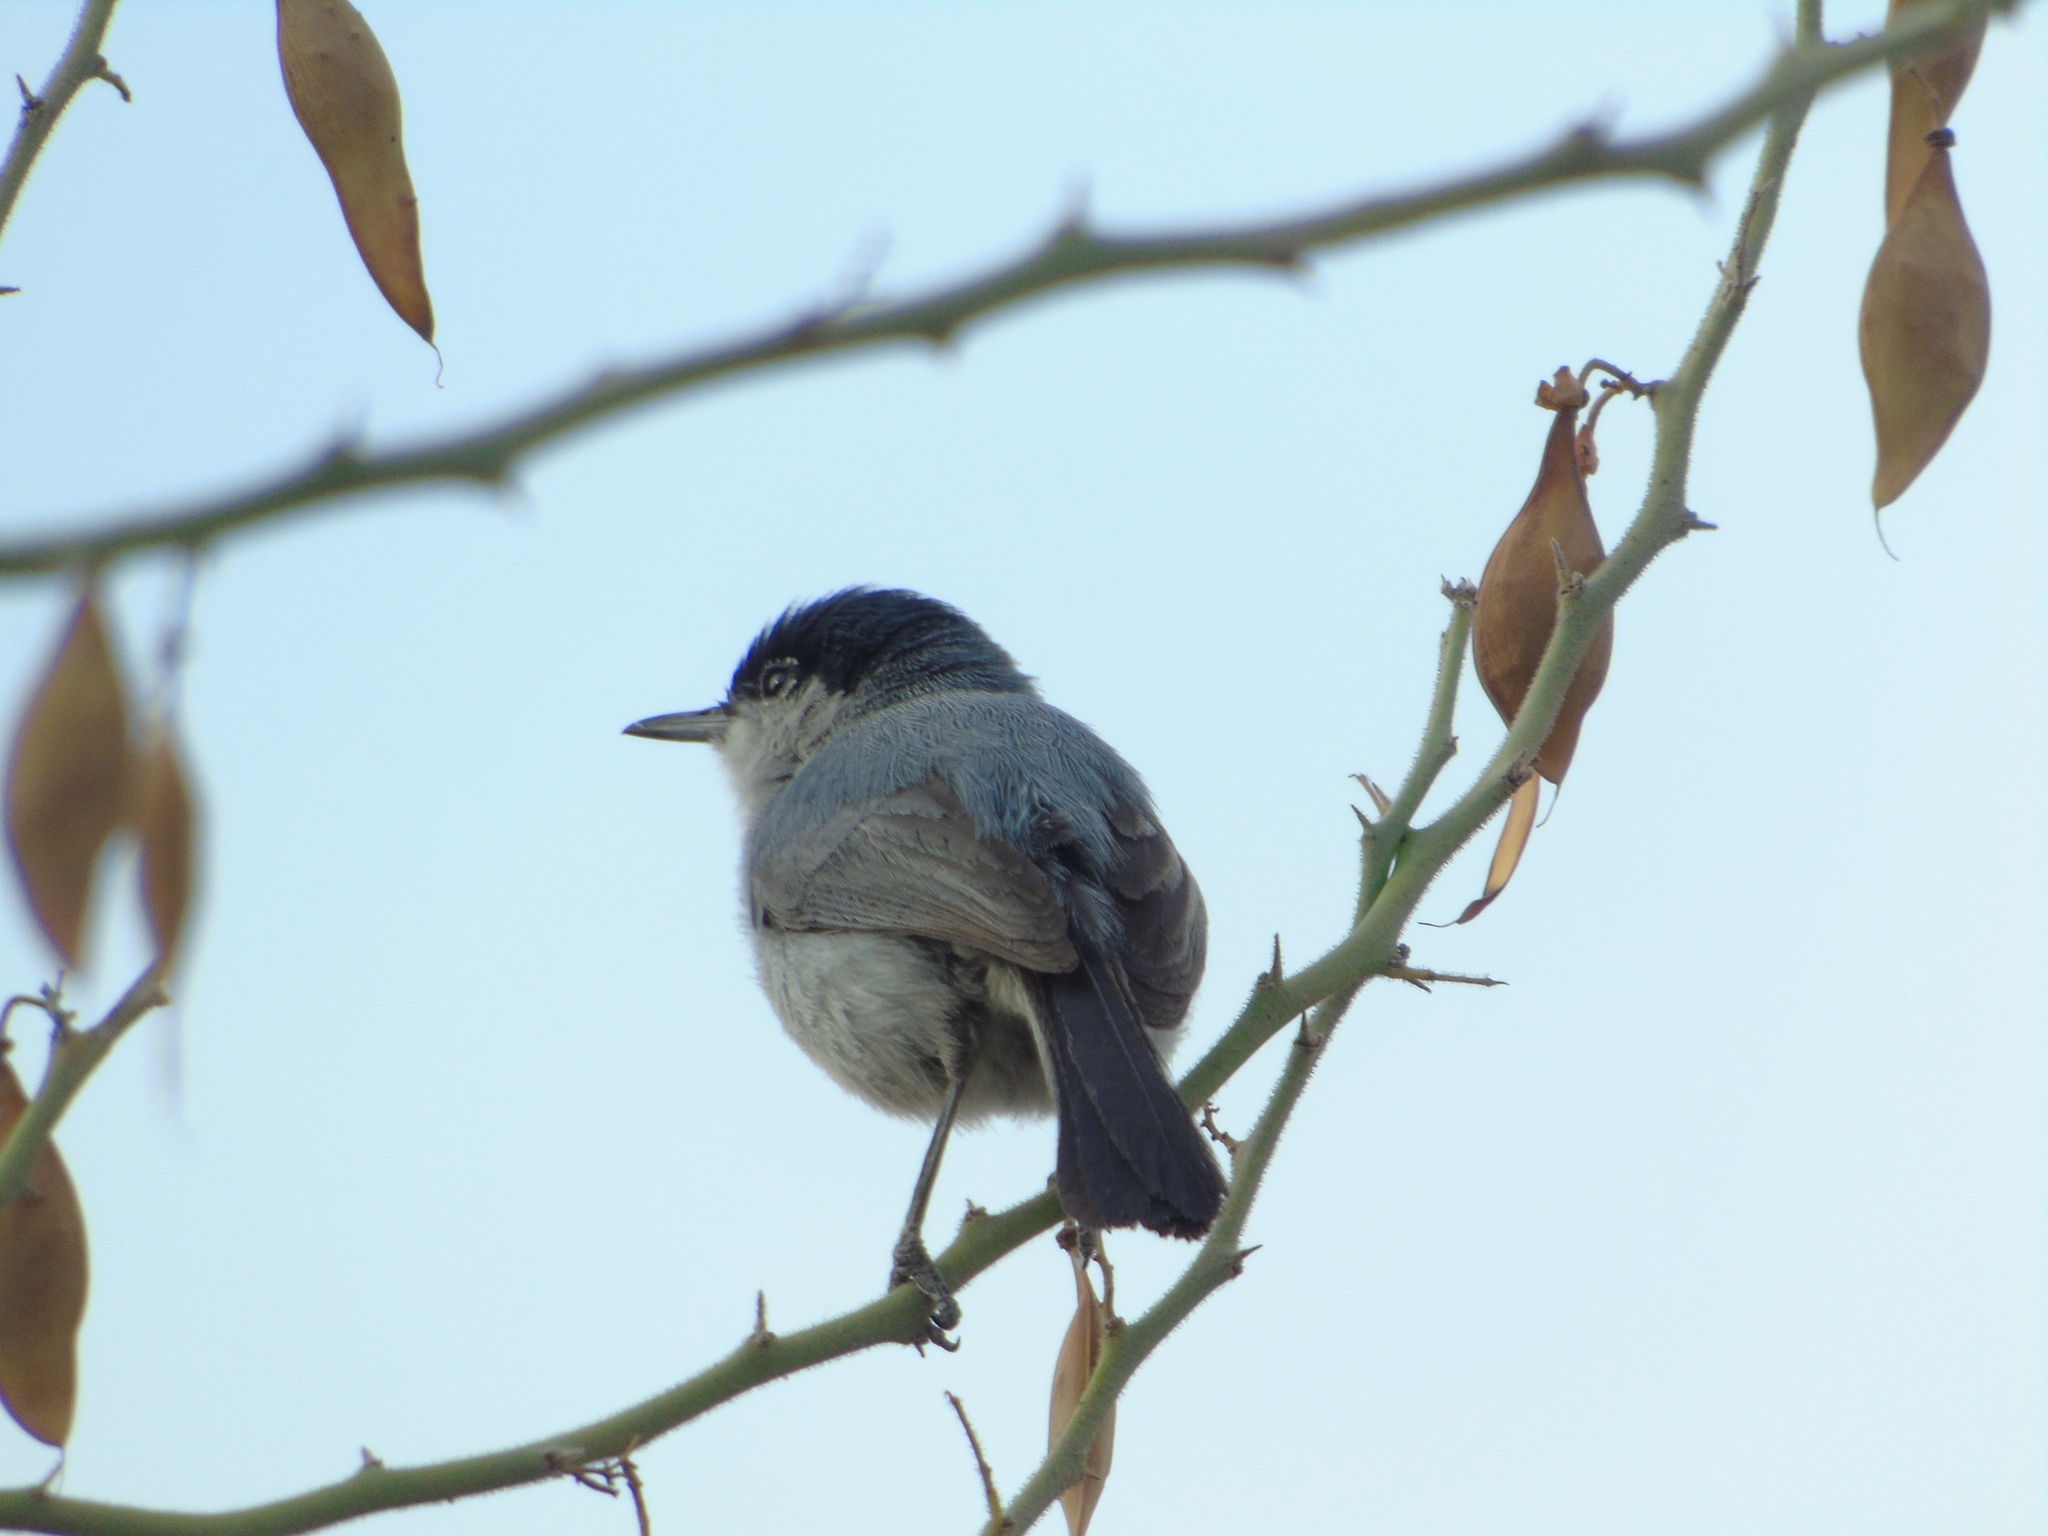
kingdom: Animalia
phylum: Chordata
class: Aves
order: Passeriformes
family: Polioptilidae
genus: Polioptila
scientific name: Polioptila californica
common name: California gnatcatcher
